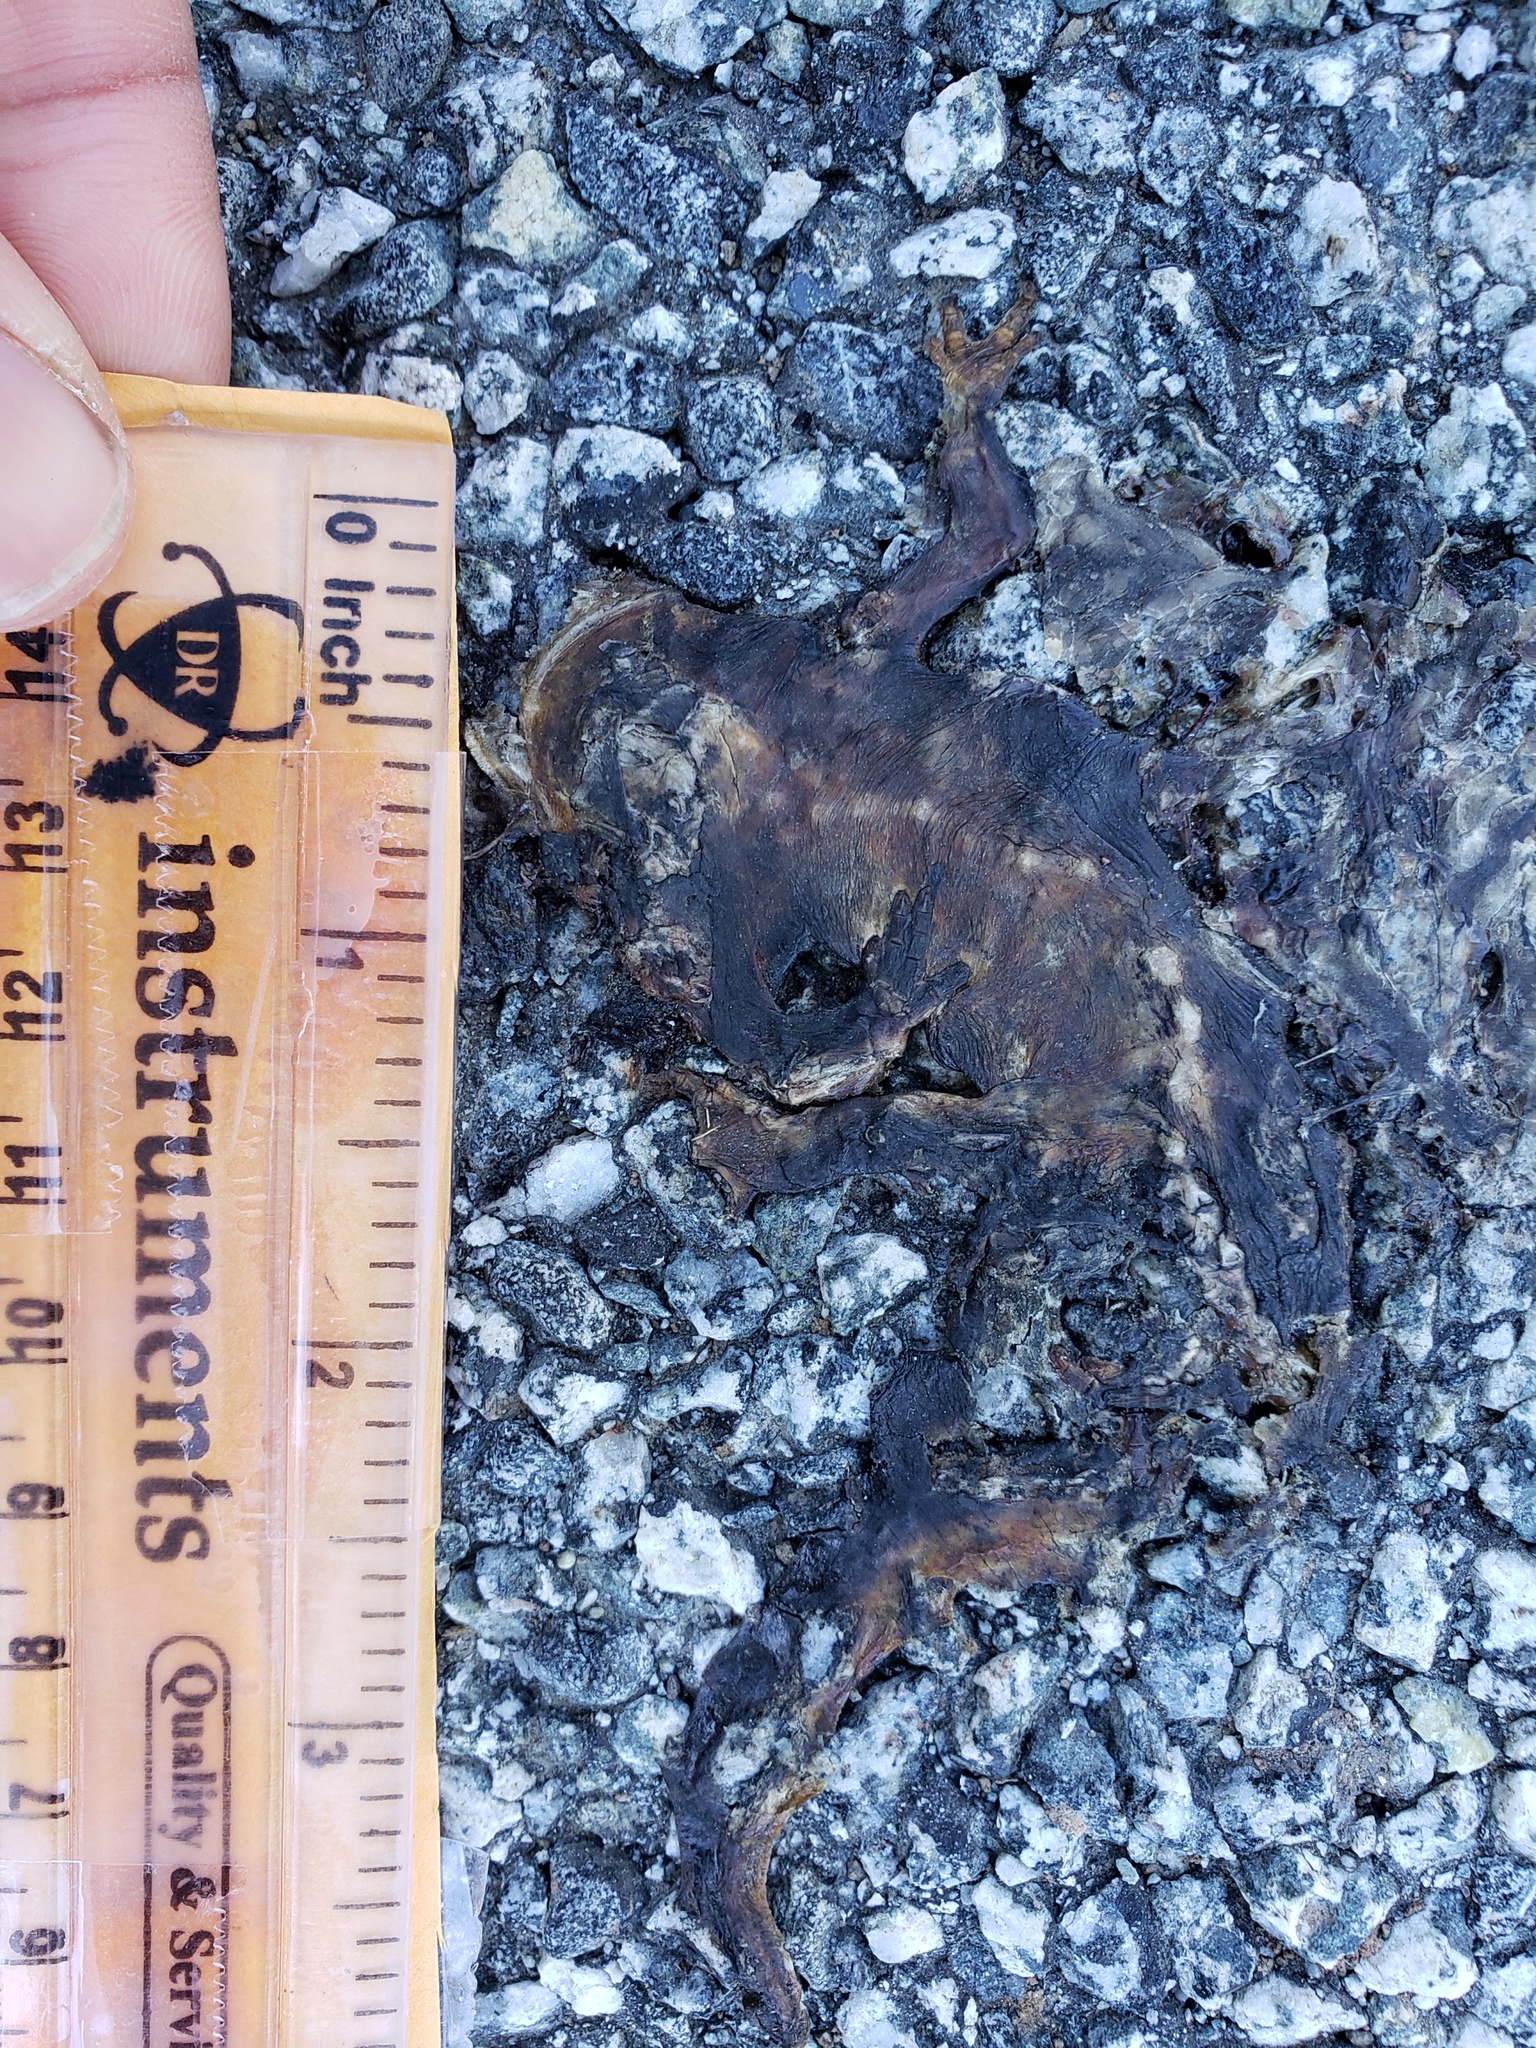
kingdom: Animalia
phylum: Chordata
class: Amphibia
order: Caudata
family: Salamandridae
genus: Taricha
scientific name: Taricha
